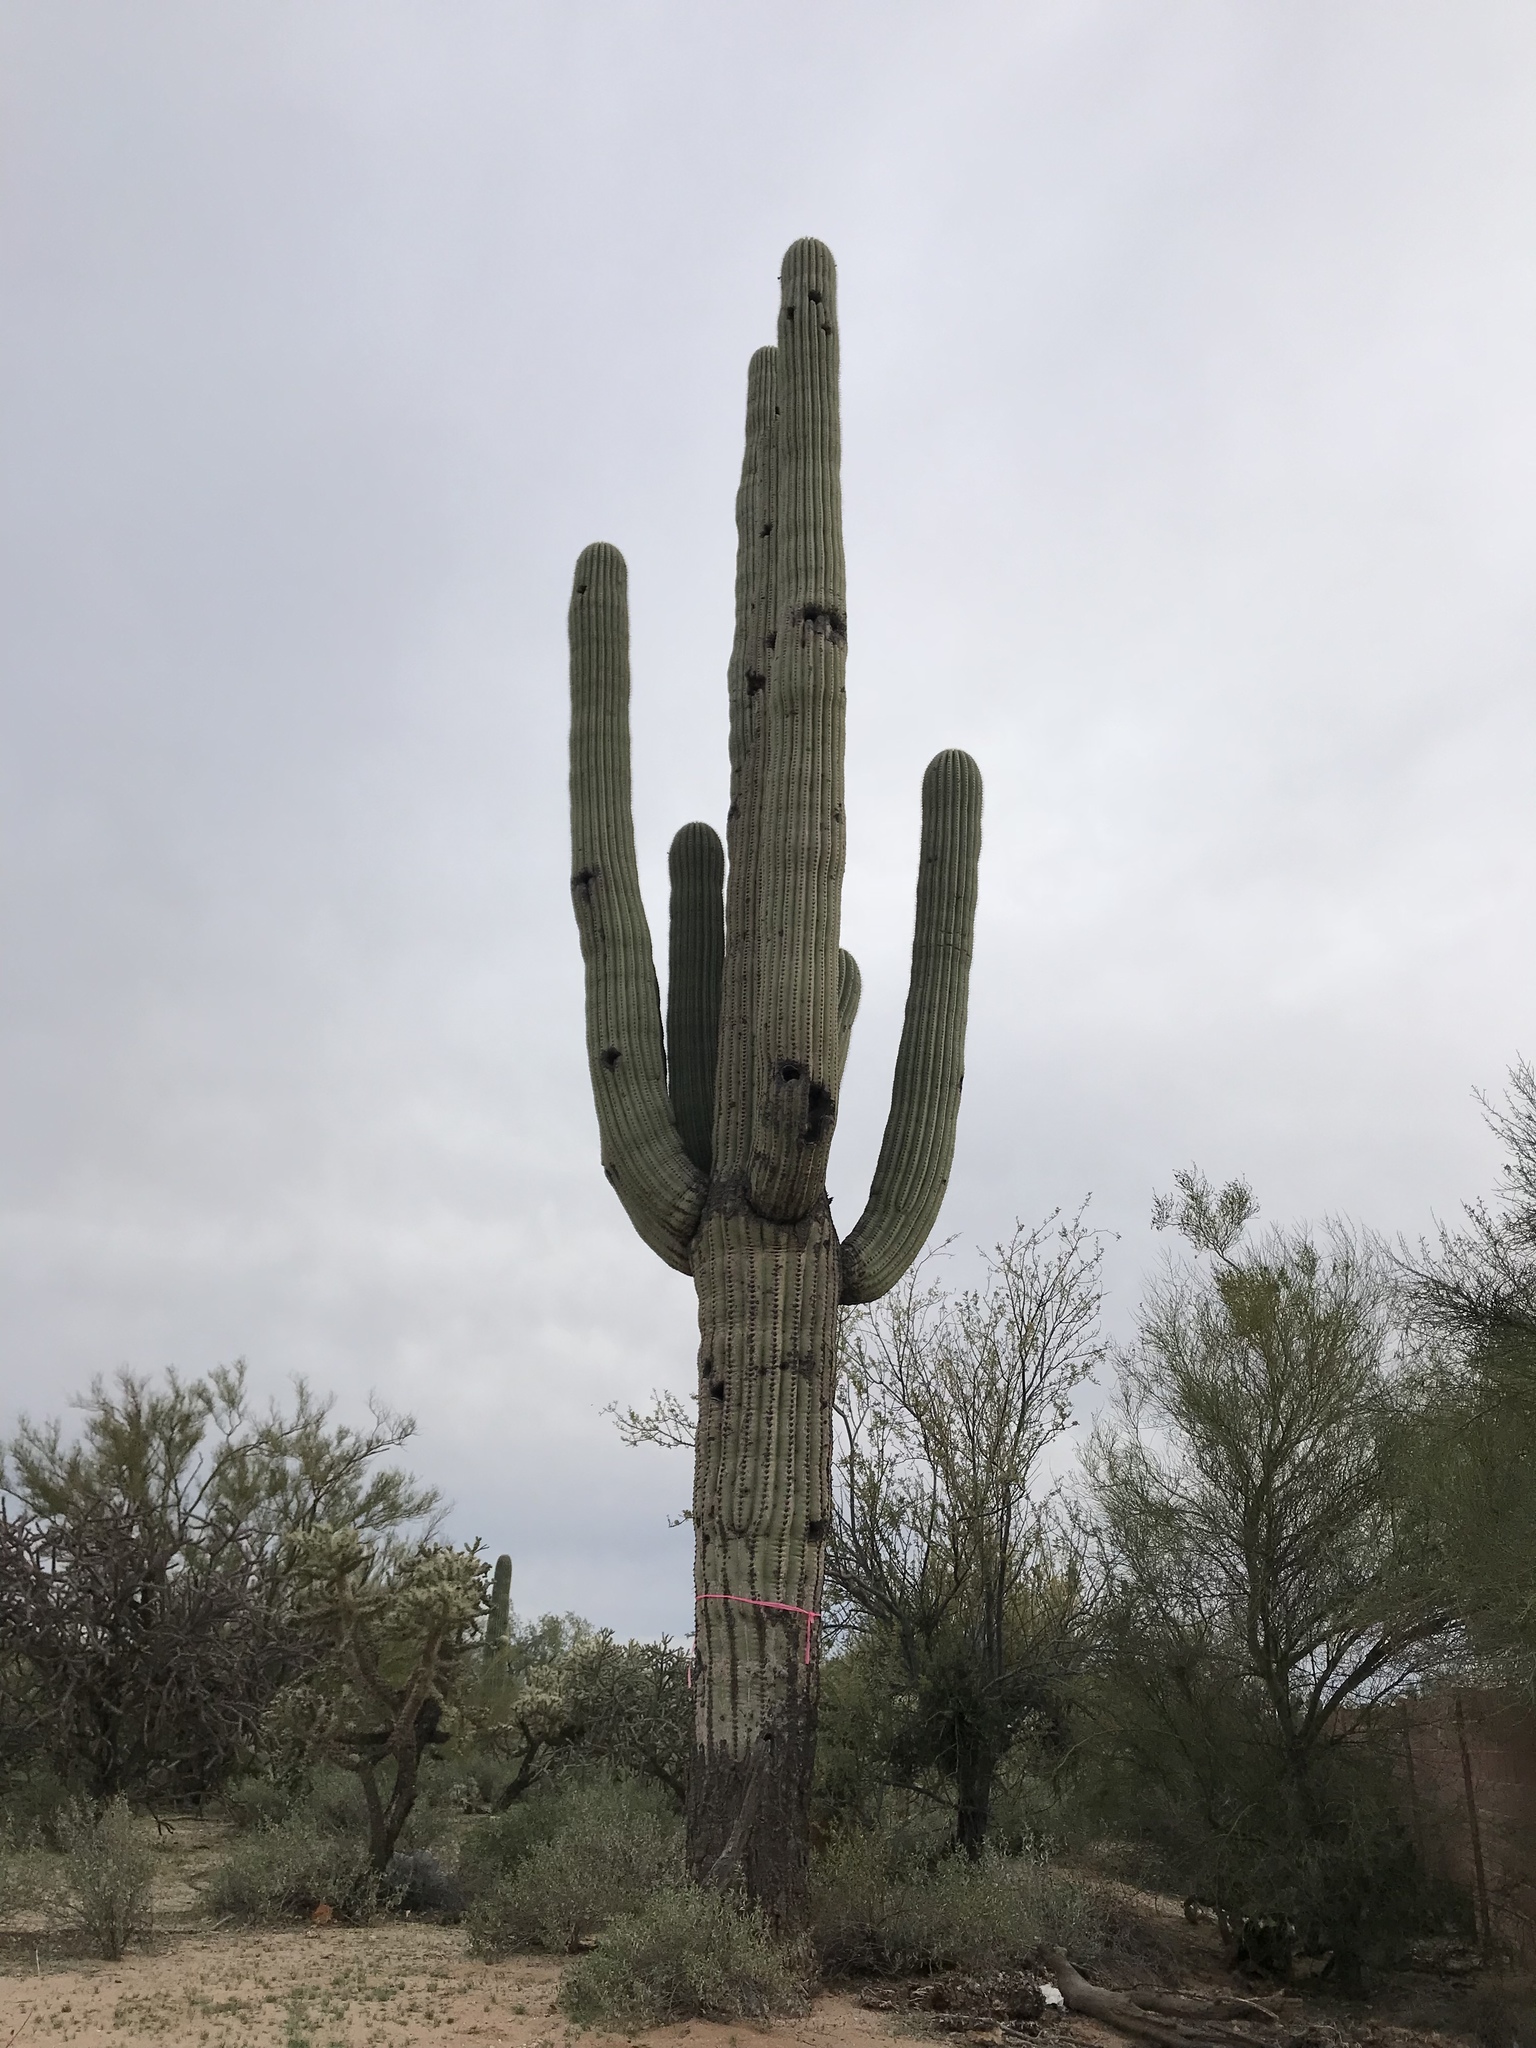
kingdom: Plantae
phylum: Tracheophyta
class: Magnoliopsida
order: Caryophyllales
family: Cactaceae
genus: Carnegiea
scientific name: Carnegiea gigantea
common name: Saguaro
